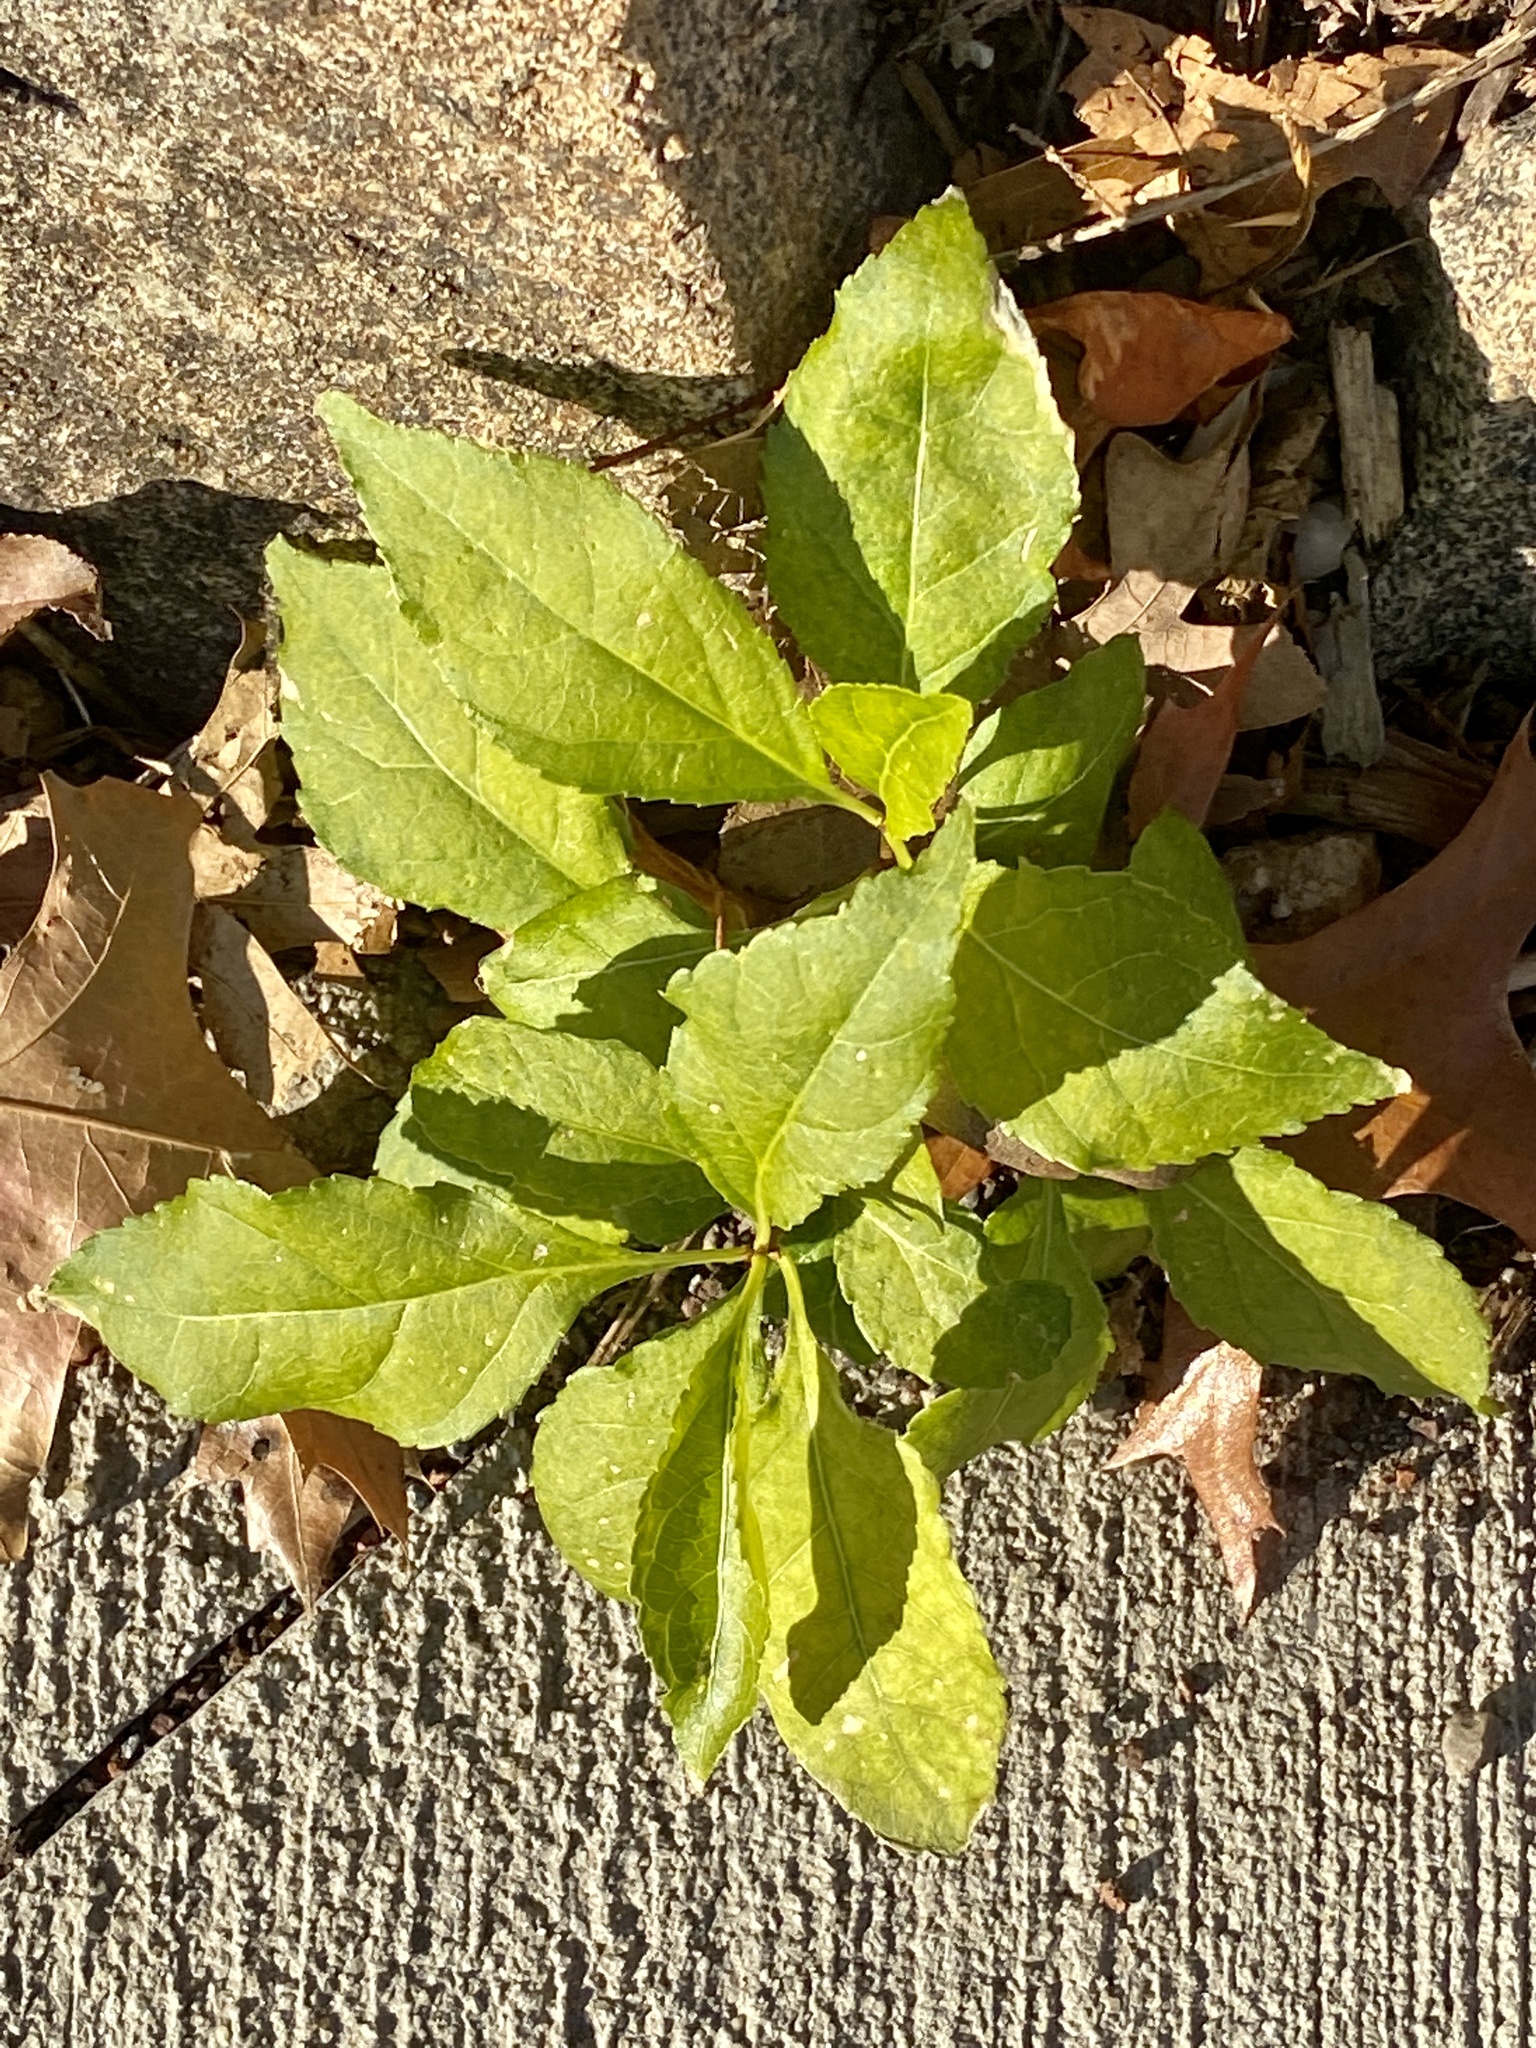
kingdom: Plantae
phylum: Tracheophyta
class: Magnoliopsida
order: Celastrales
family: Celastraceae
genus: Celastrus
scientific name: Celastrus orbiculatus
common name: Oriental bittersweet
